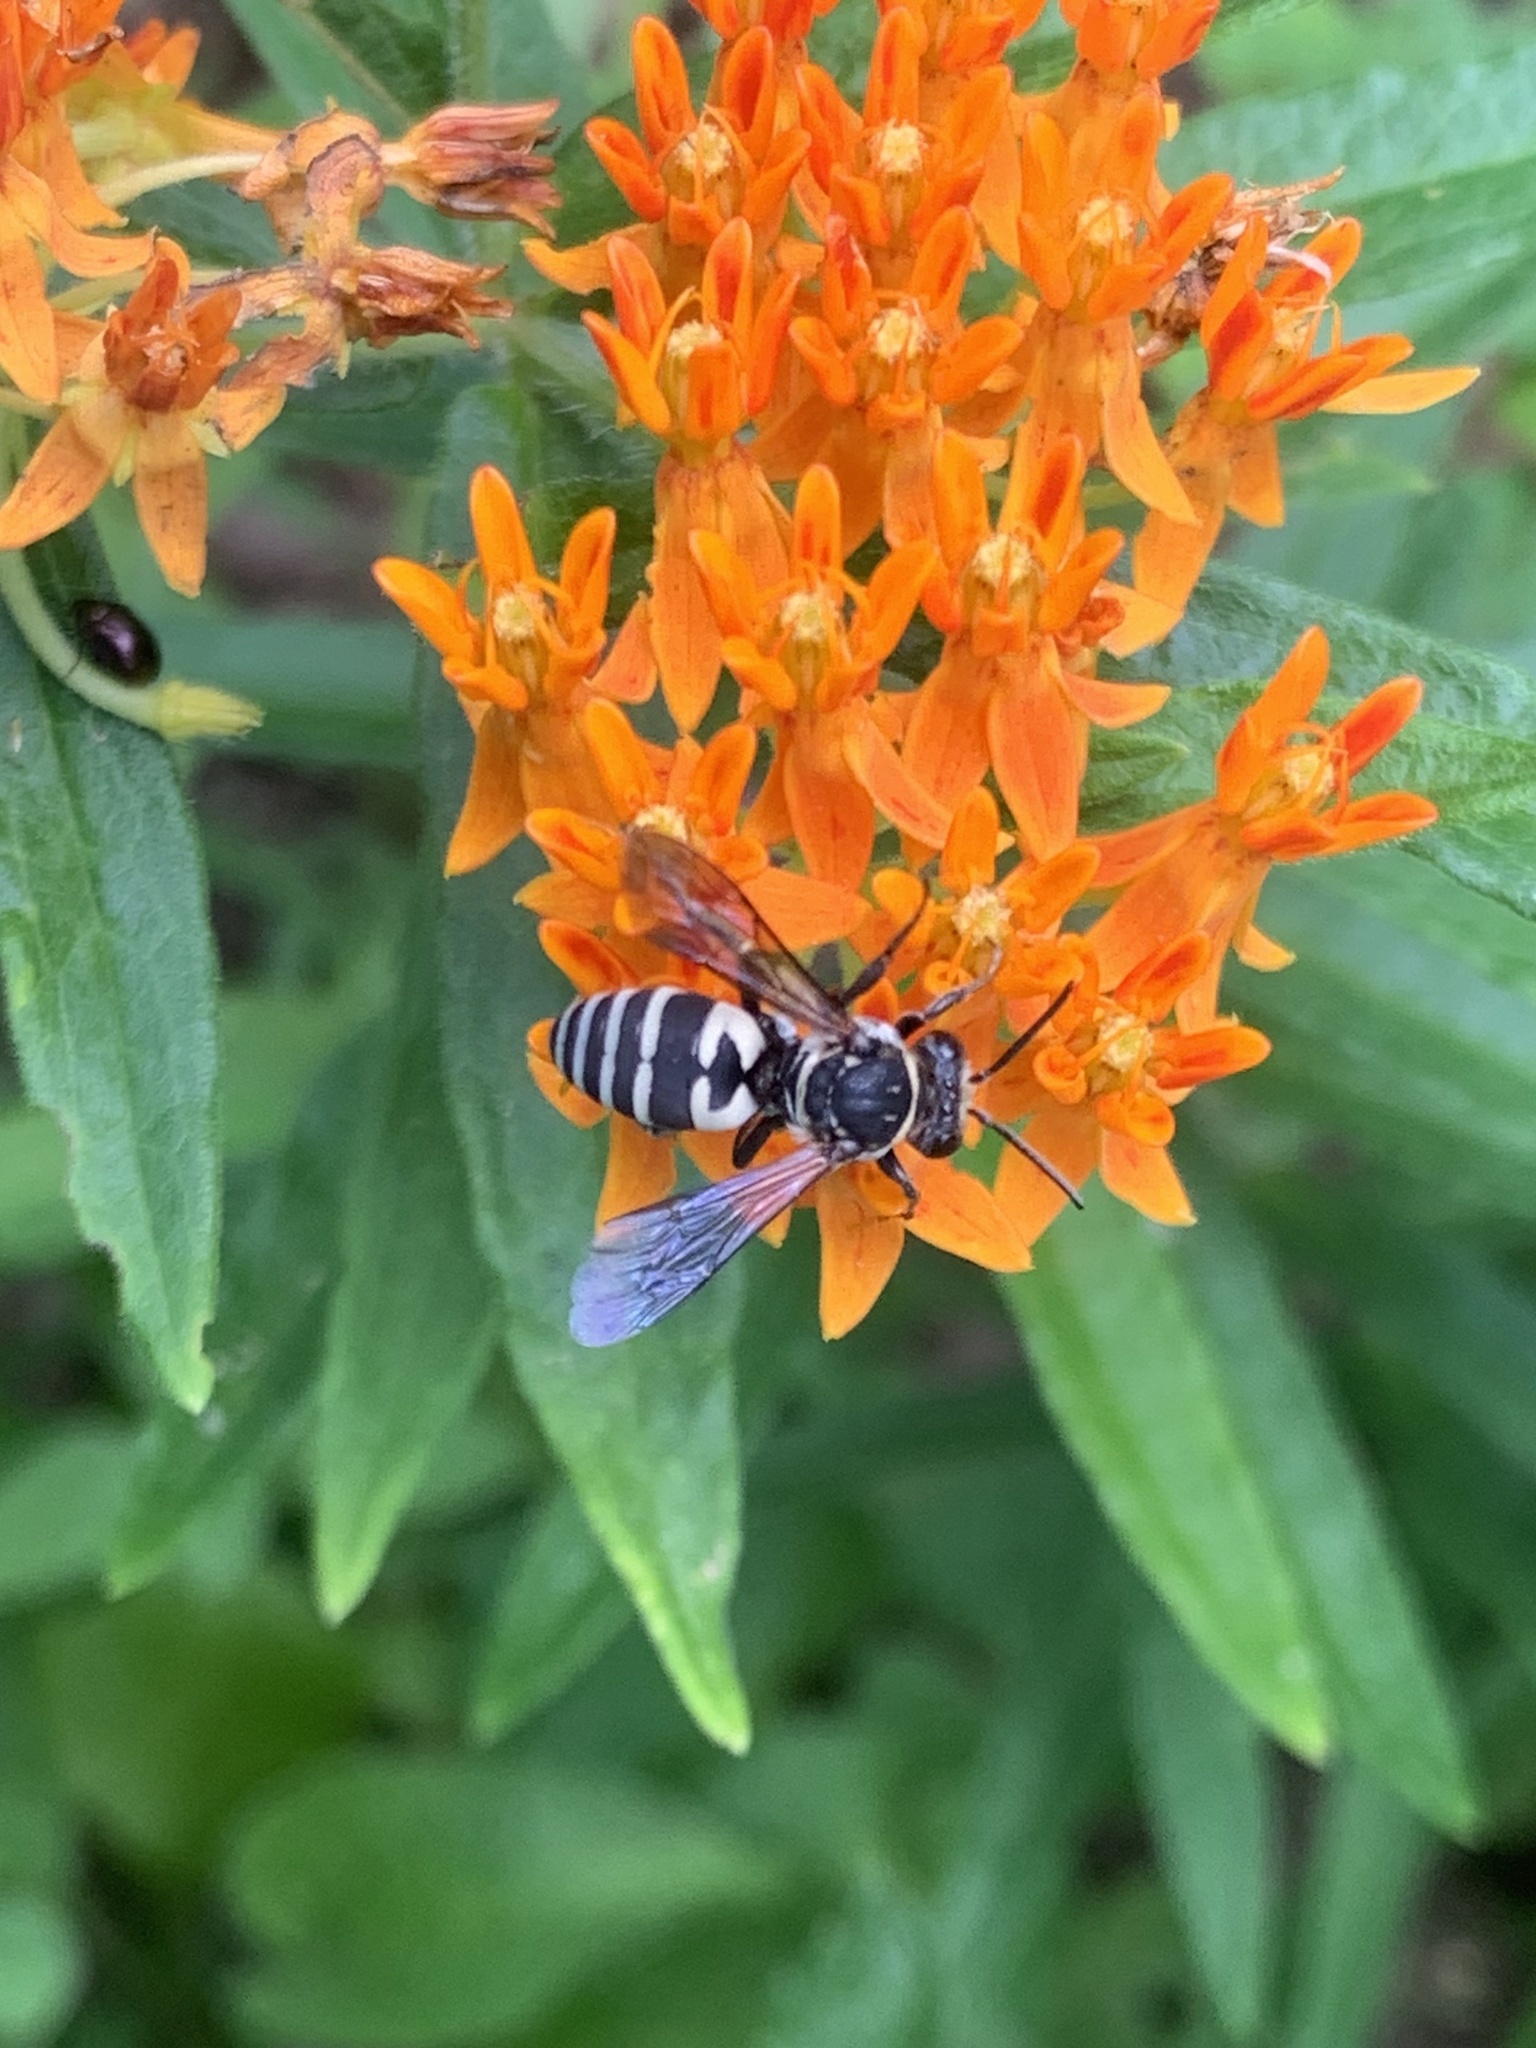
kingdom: Animalia
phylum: Arthropoda
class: Insecta
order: Hymenoptera
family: Apidae
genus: Triepeolus
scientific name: Triepeolus lunatus
